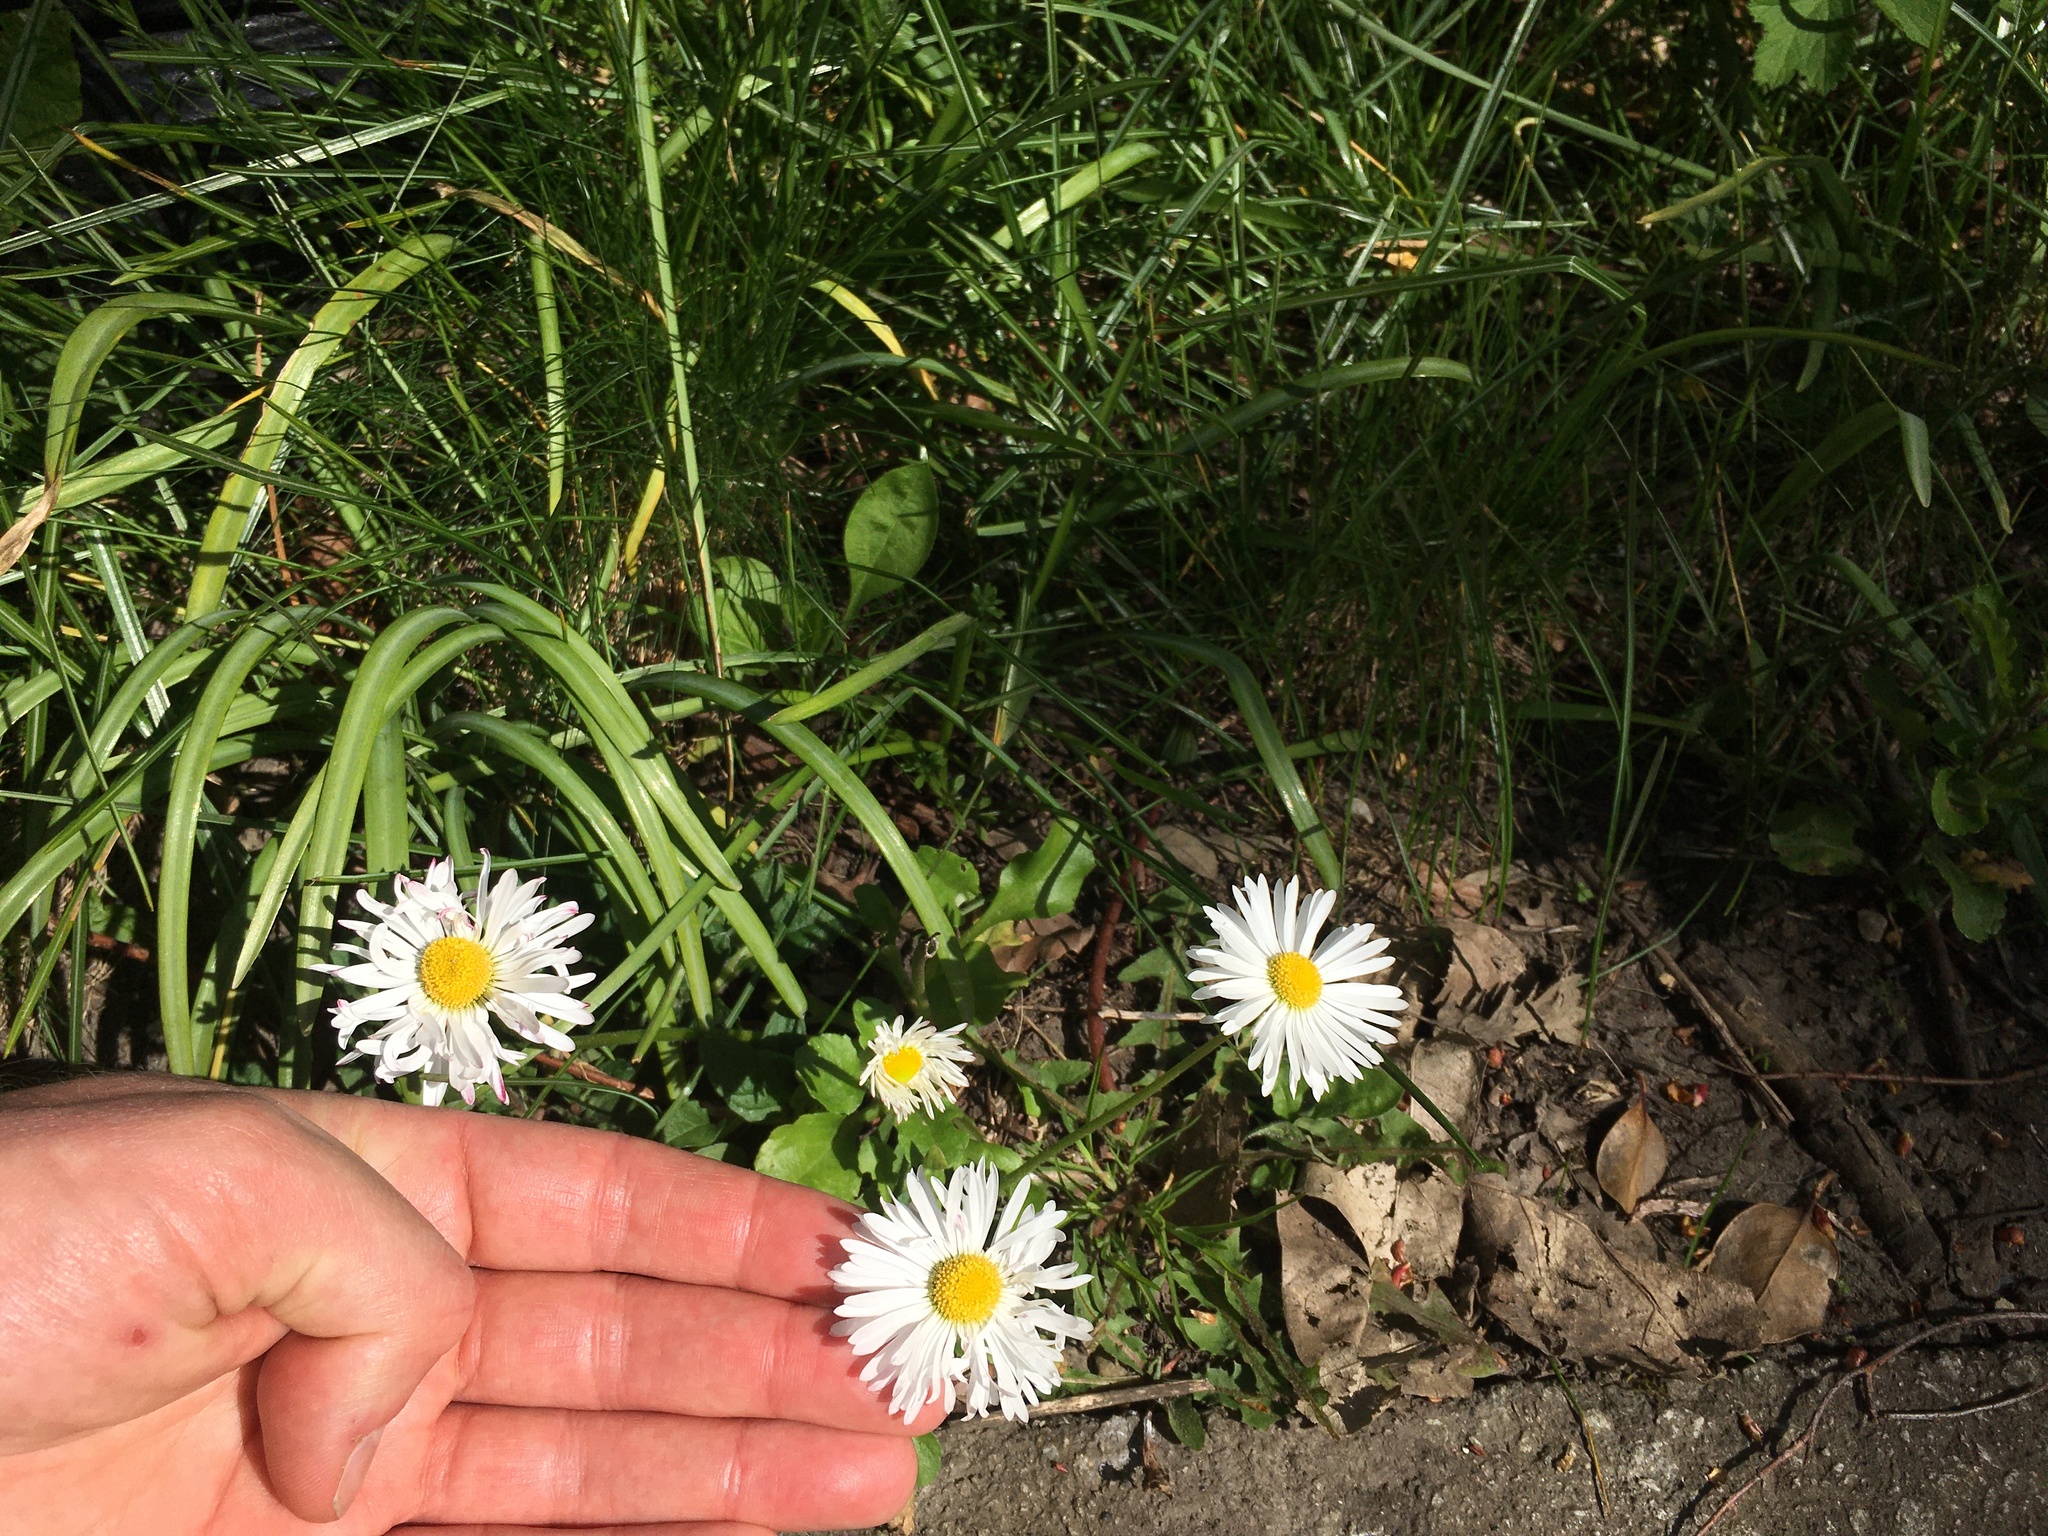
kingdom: Plantae
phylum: Tracheophyta
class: Magnoliopsida
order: Asterales
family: Asteraceae
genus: Bellis
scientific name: Bellis perennis
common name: Lawndaisy
